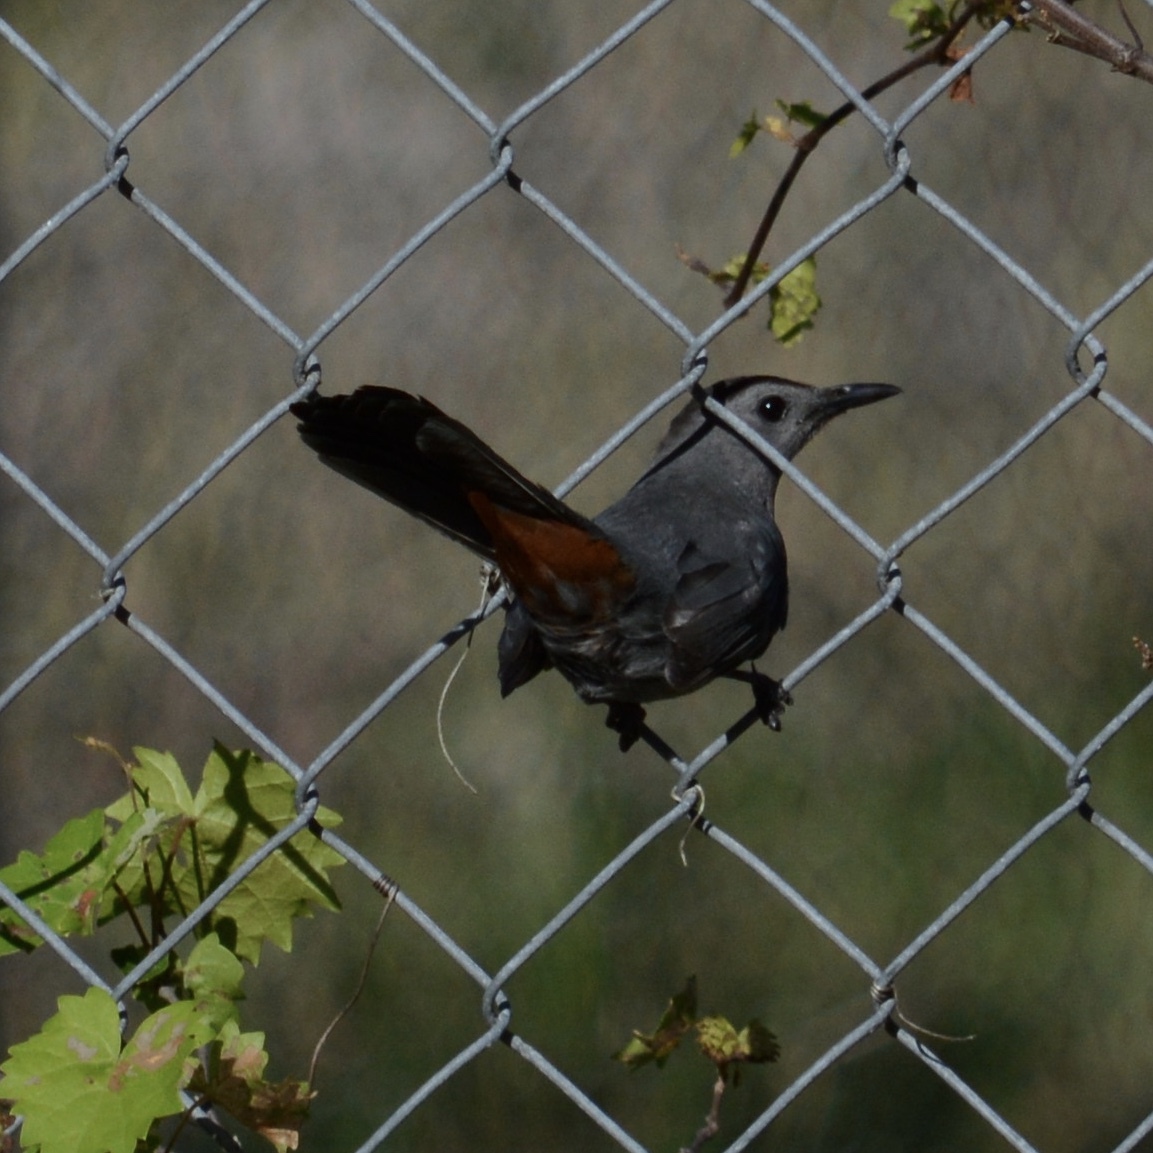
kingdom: Animalia
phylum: Chordata
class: Aves
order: Passeriformes
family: Mimidae
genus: Dumetella
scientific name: Dumetella carolinensis
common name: Gray catbird
